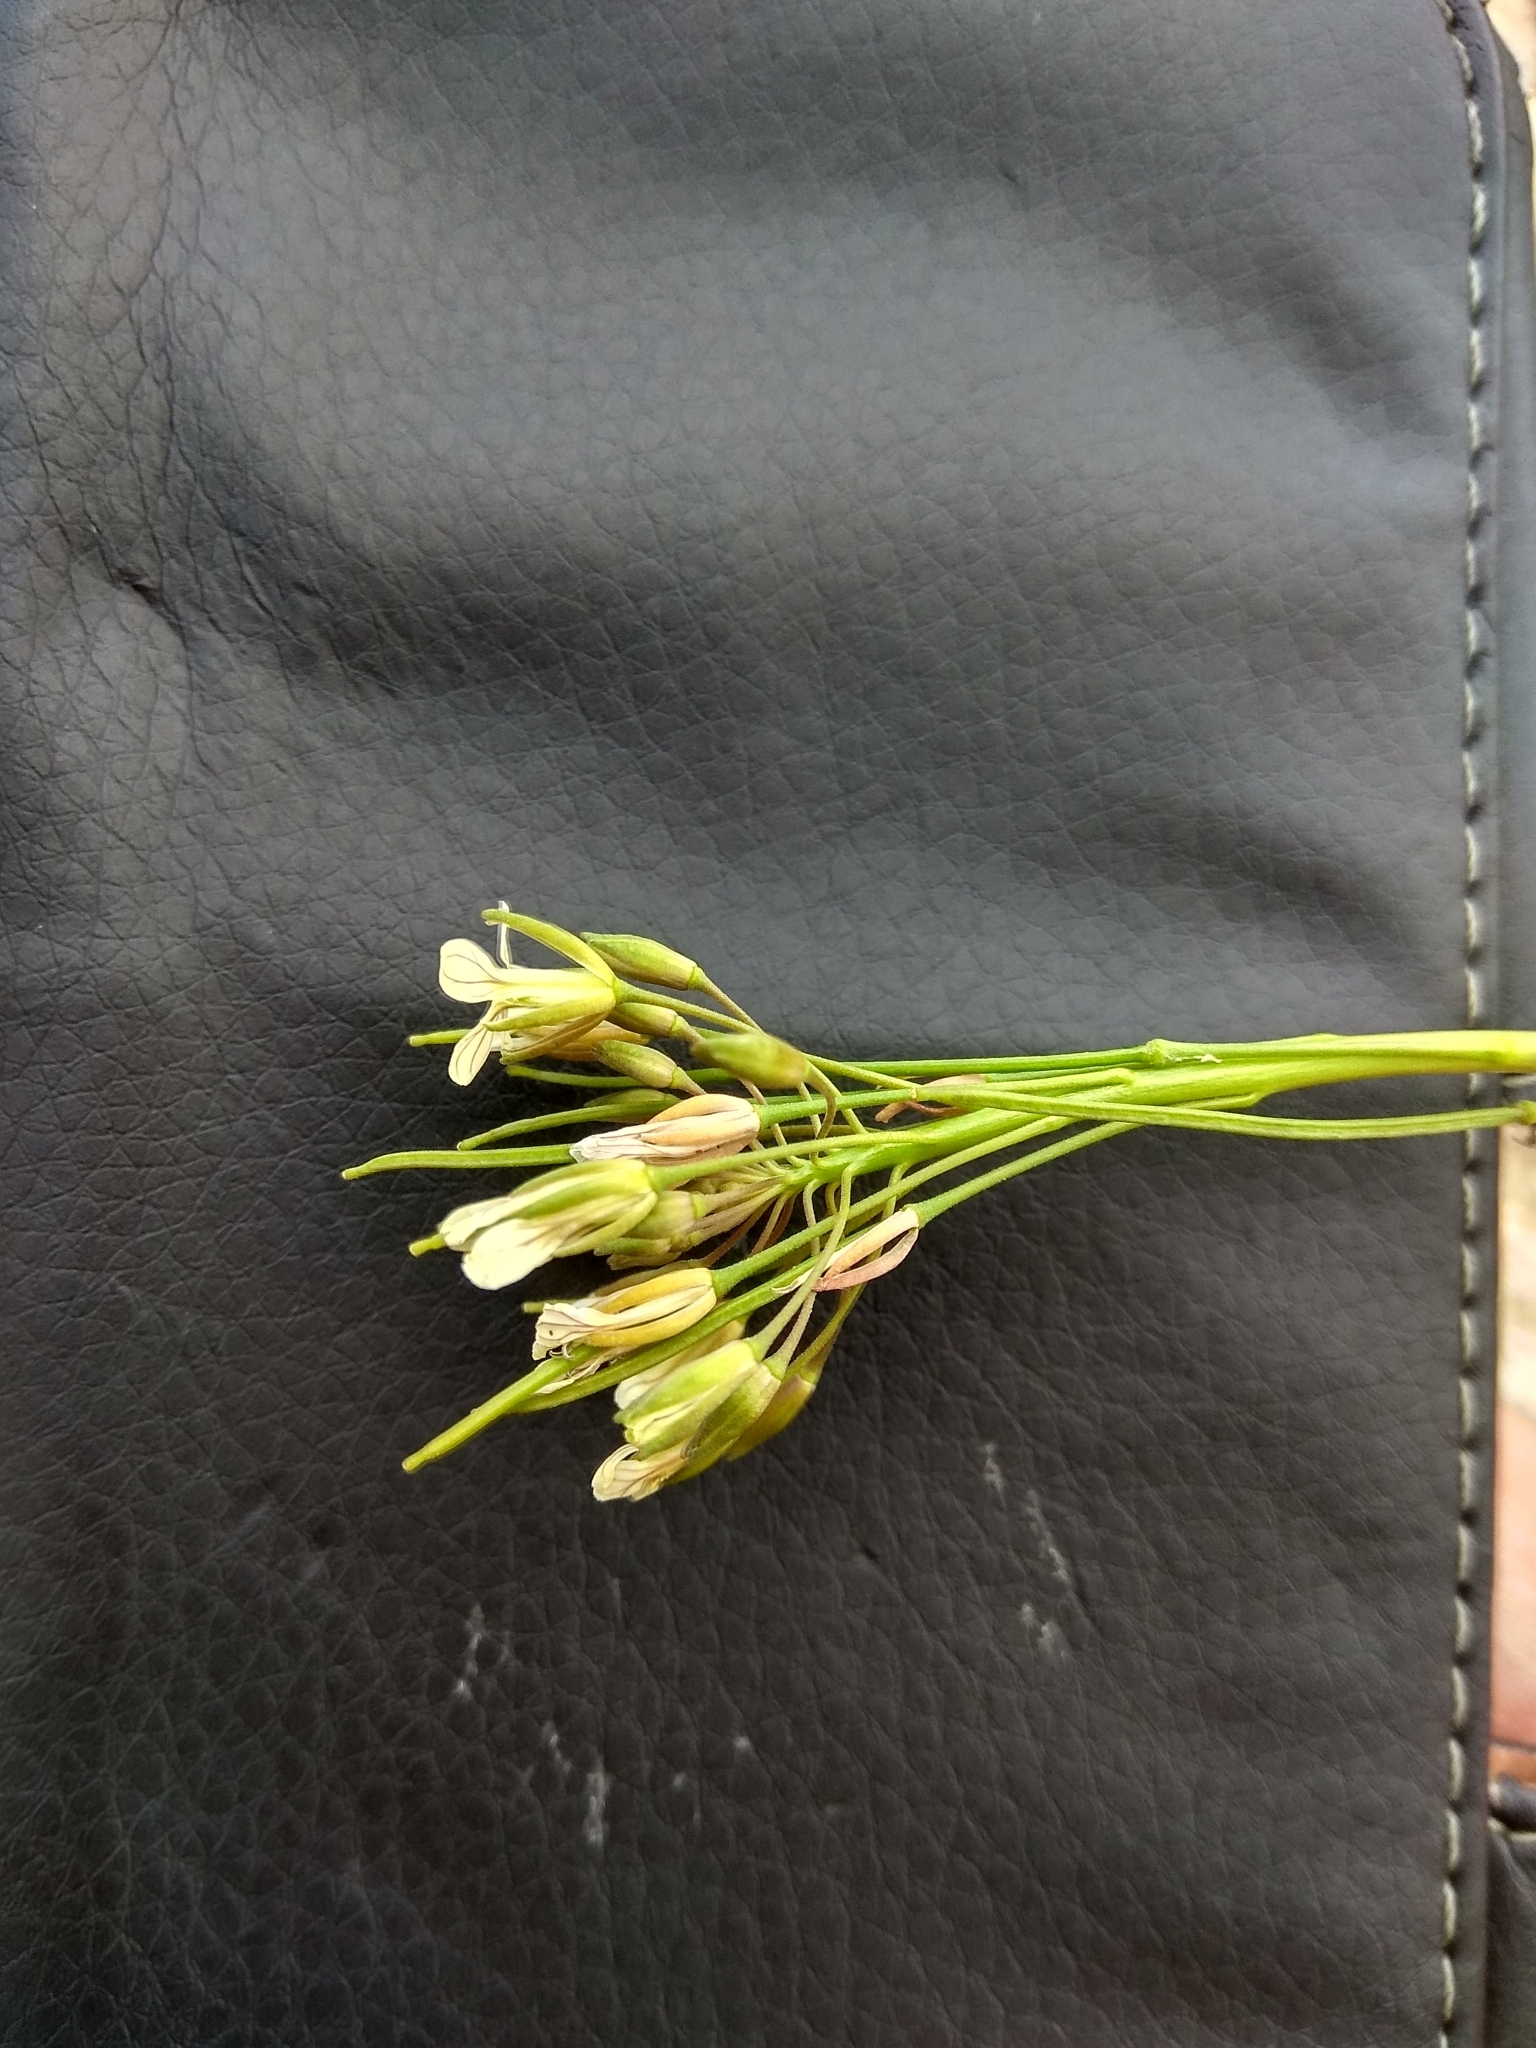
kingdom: Plantae
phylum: Tracheophyta
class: Magnoliopsida
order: Brassicales
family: Brassicaceae
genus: Conringia
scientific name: Conringia orientalis
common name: Hare's ear mustard
